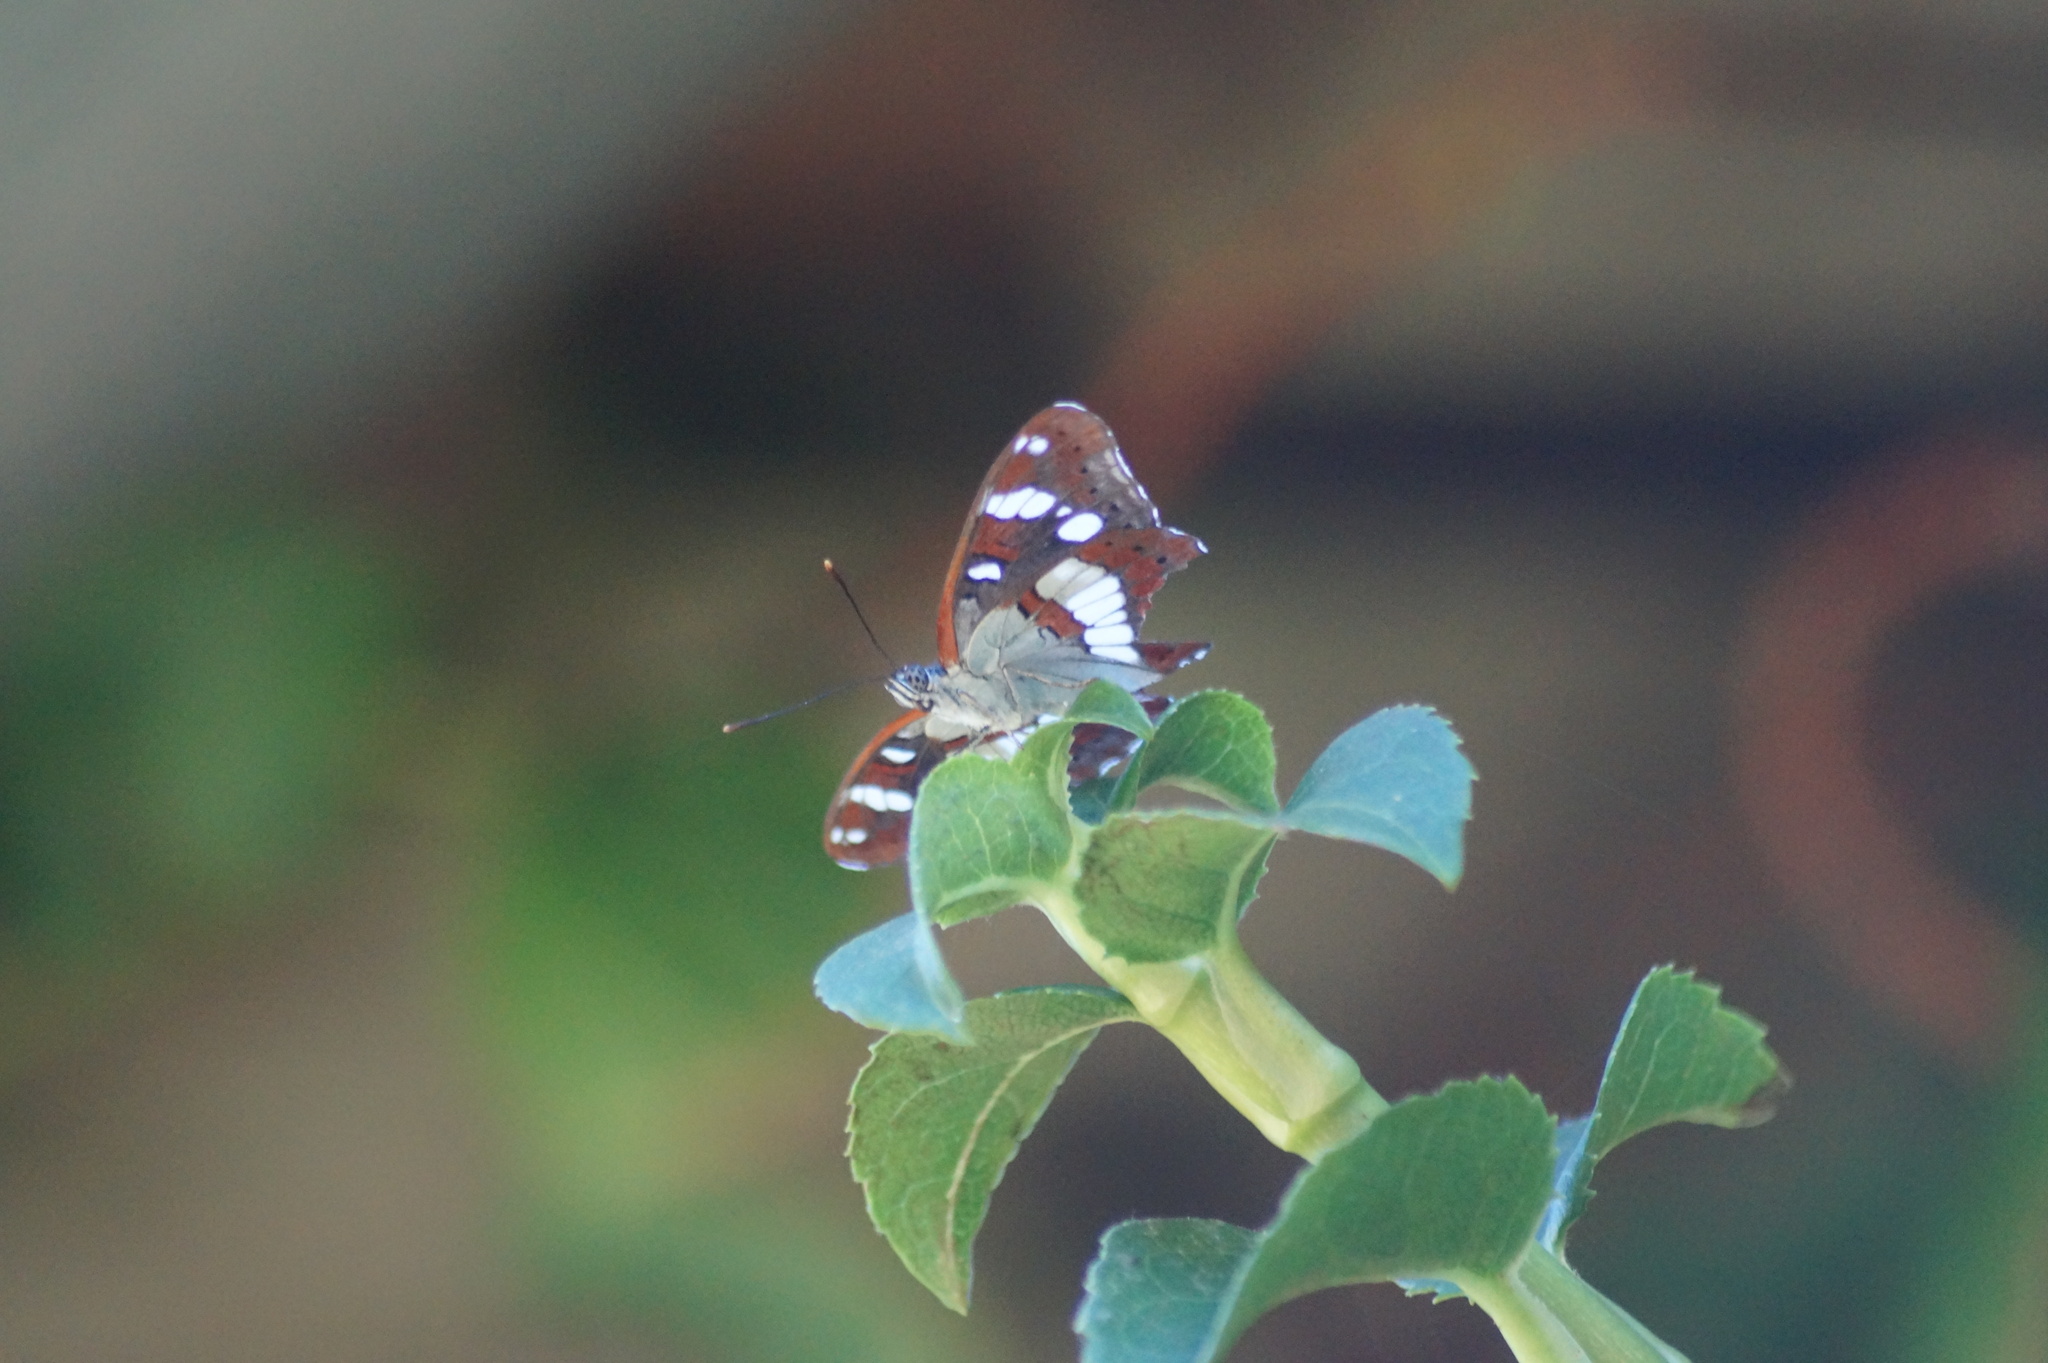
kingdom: Animalia
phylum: Arthropoda
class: Insecta
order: Lepidoptera
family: Nymphalidae
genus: Limenitis
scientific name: Limenitis reducta
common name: Southern white admiral
